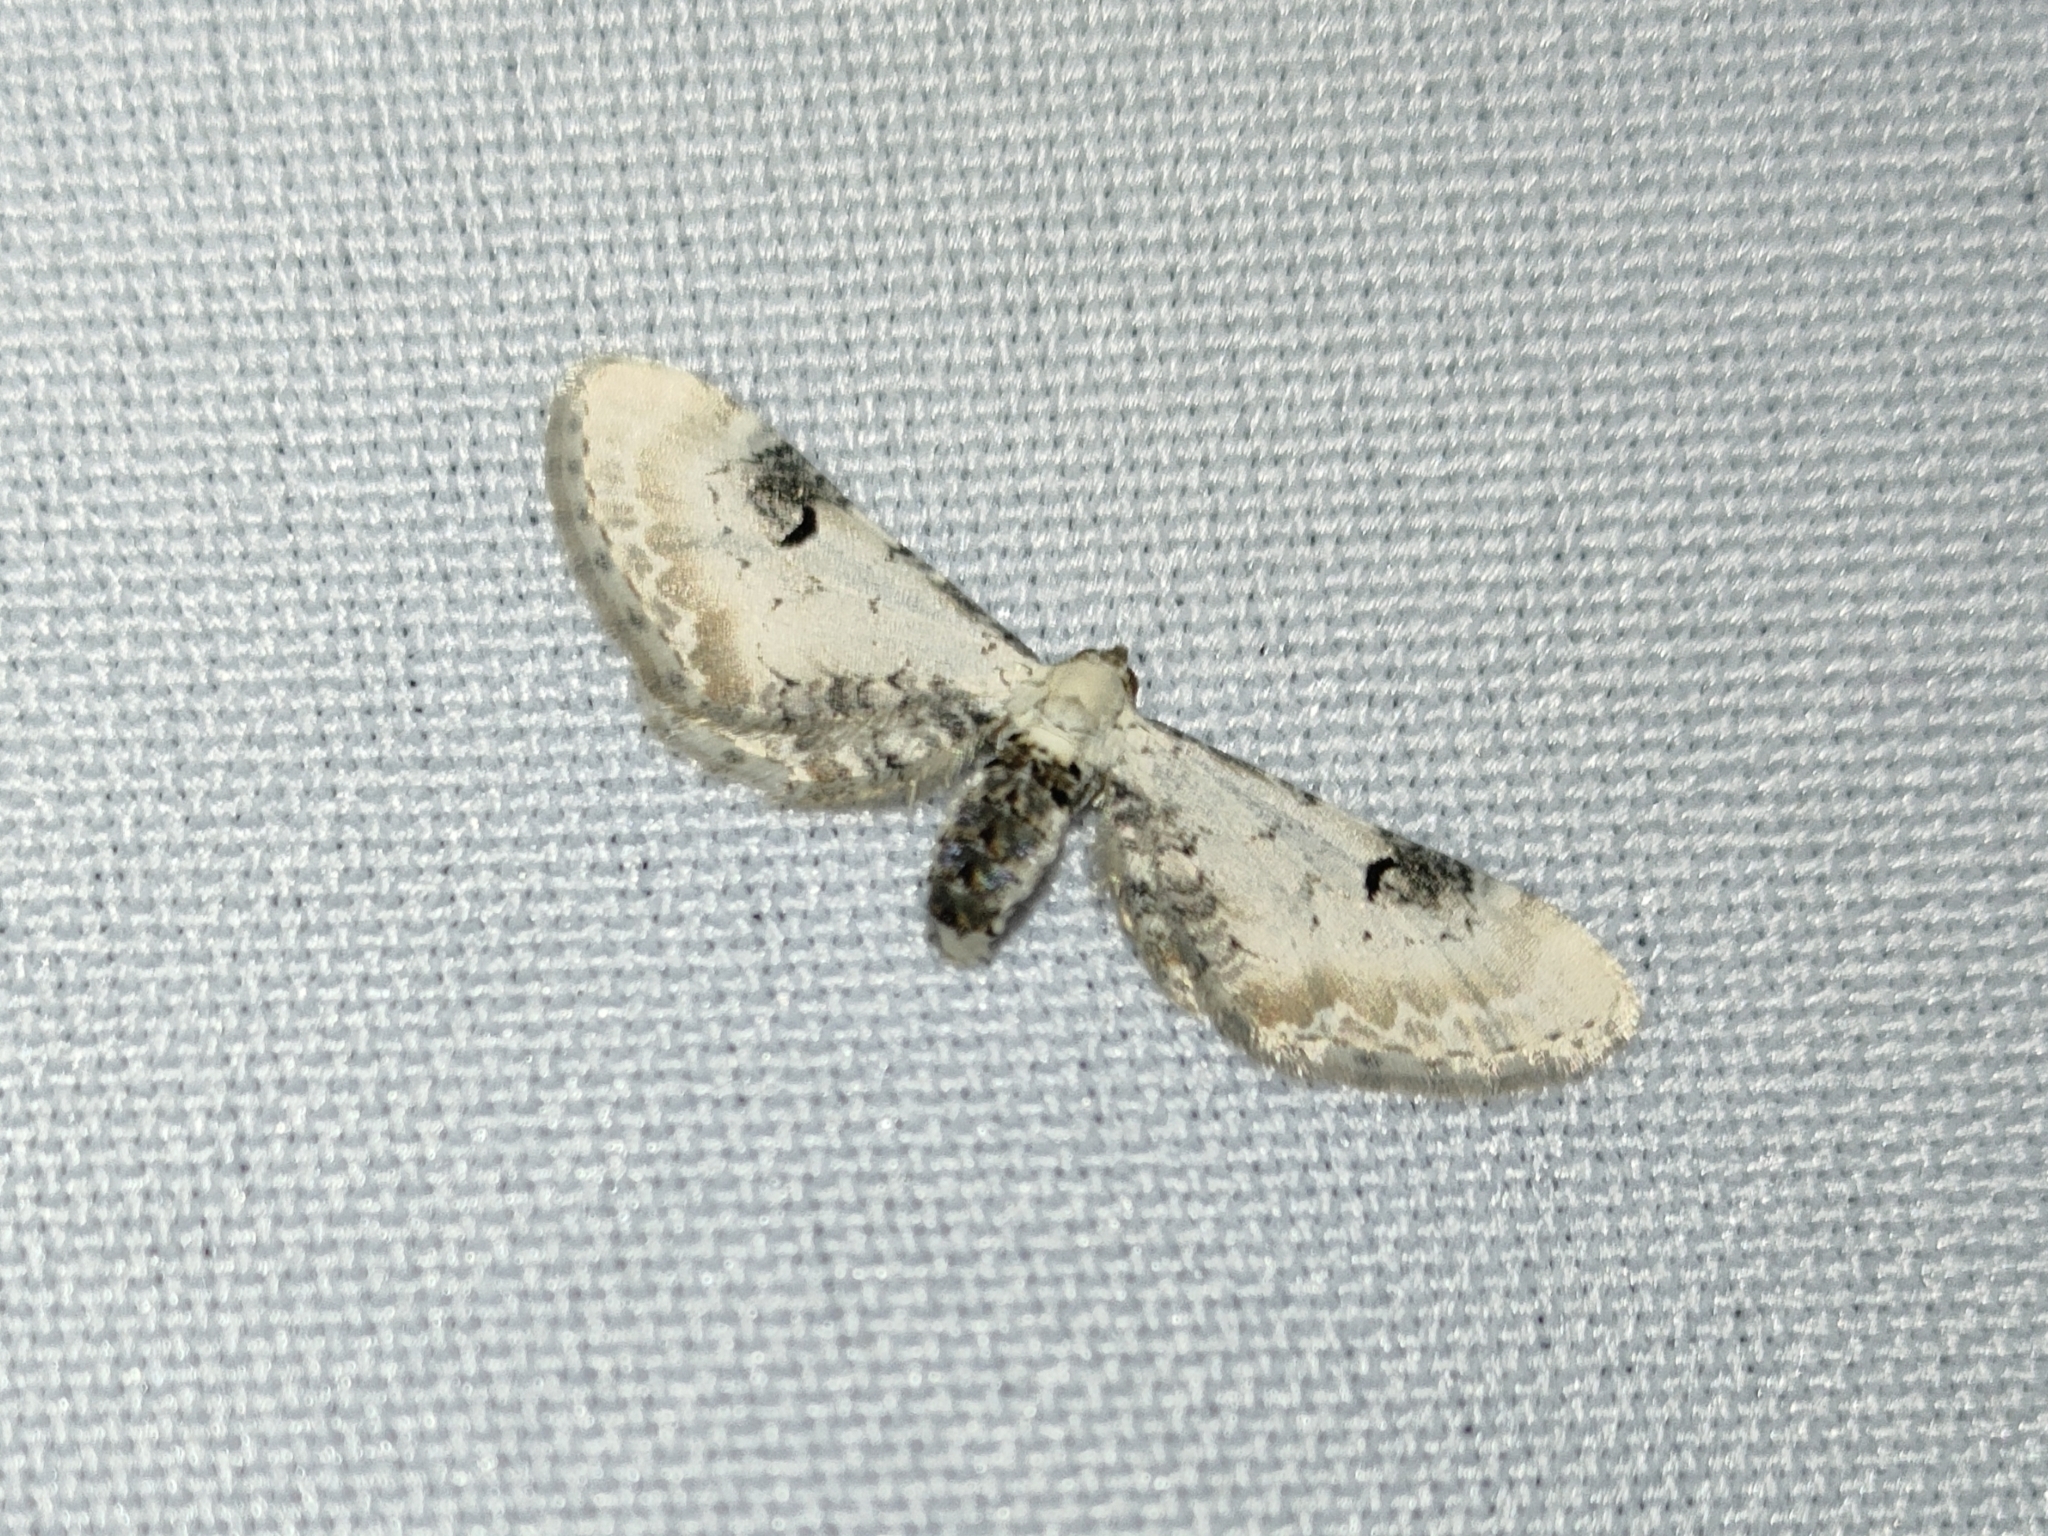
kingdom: Animalia
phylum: Arthropoda
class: Insecta
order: Lepidoptera
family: Geometridae
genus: Eupithecia
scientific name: Eupithecia centaureata
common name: Lime-speck pug
